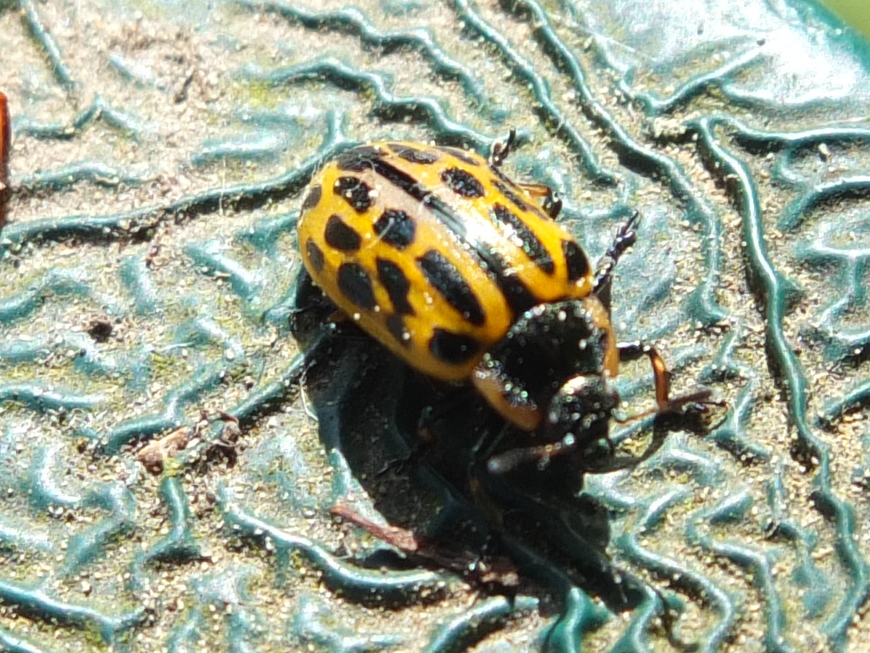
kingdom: Animalia
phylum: Arthropoda
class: Insecta
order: Coleoptera
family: Chrysomelidae
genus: Chrysomela
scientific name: Chrysomela vigintipunctata
